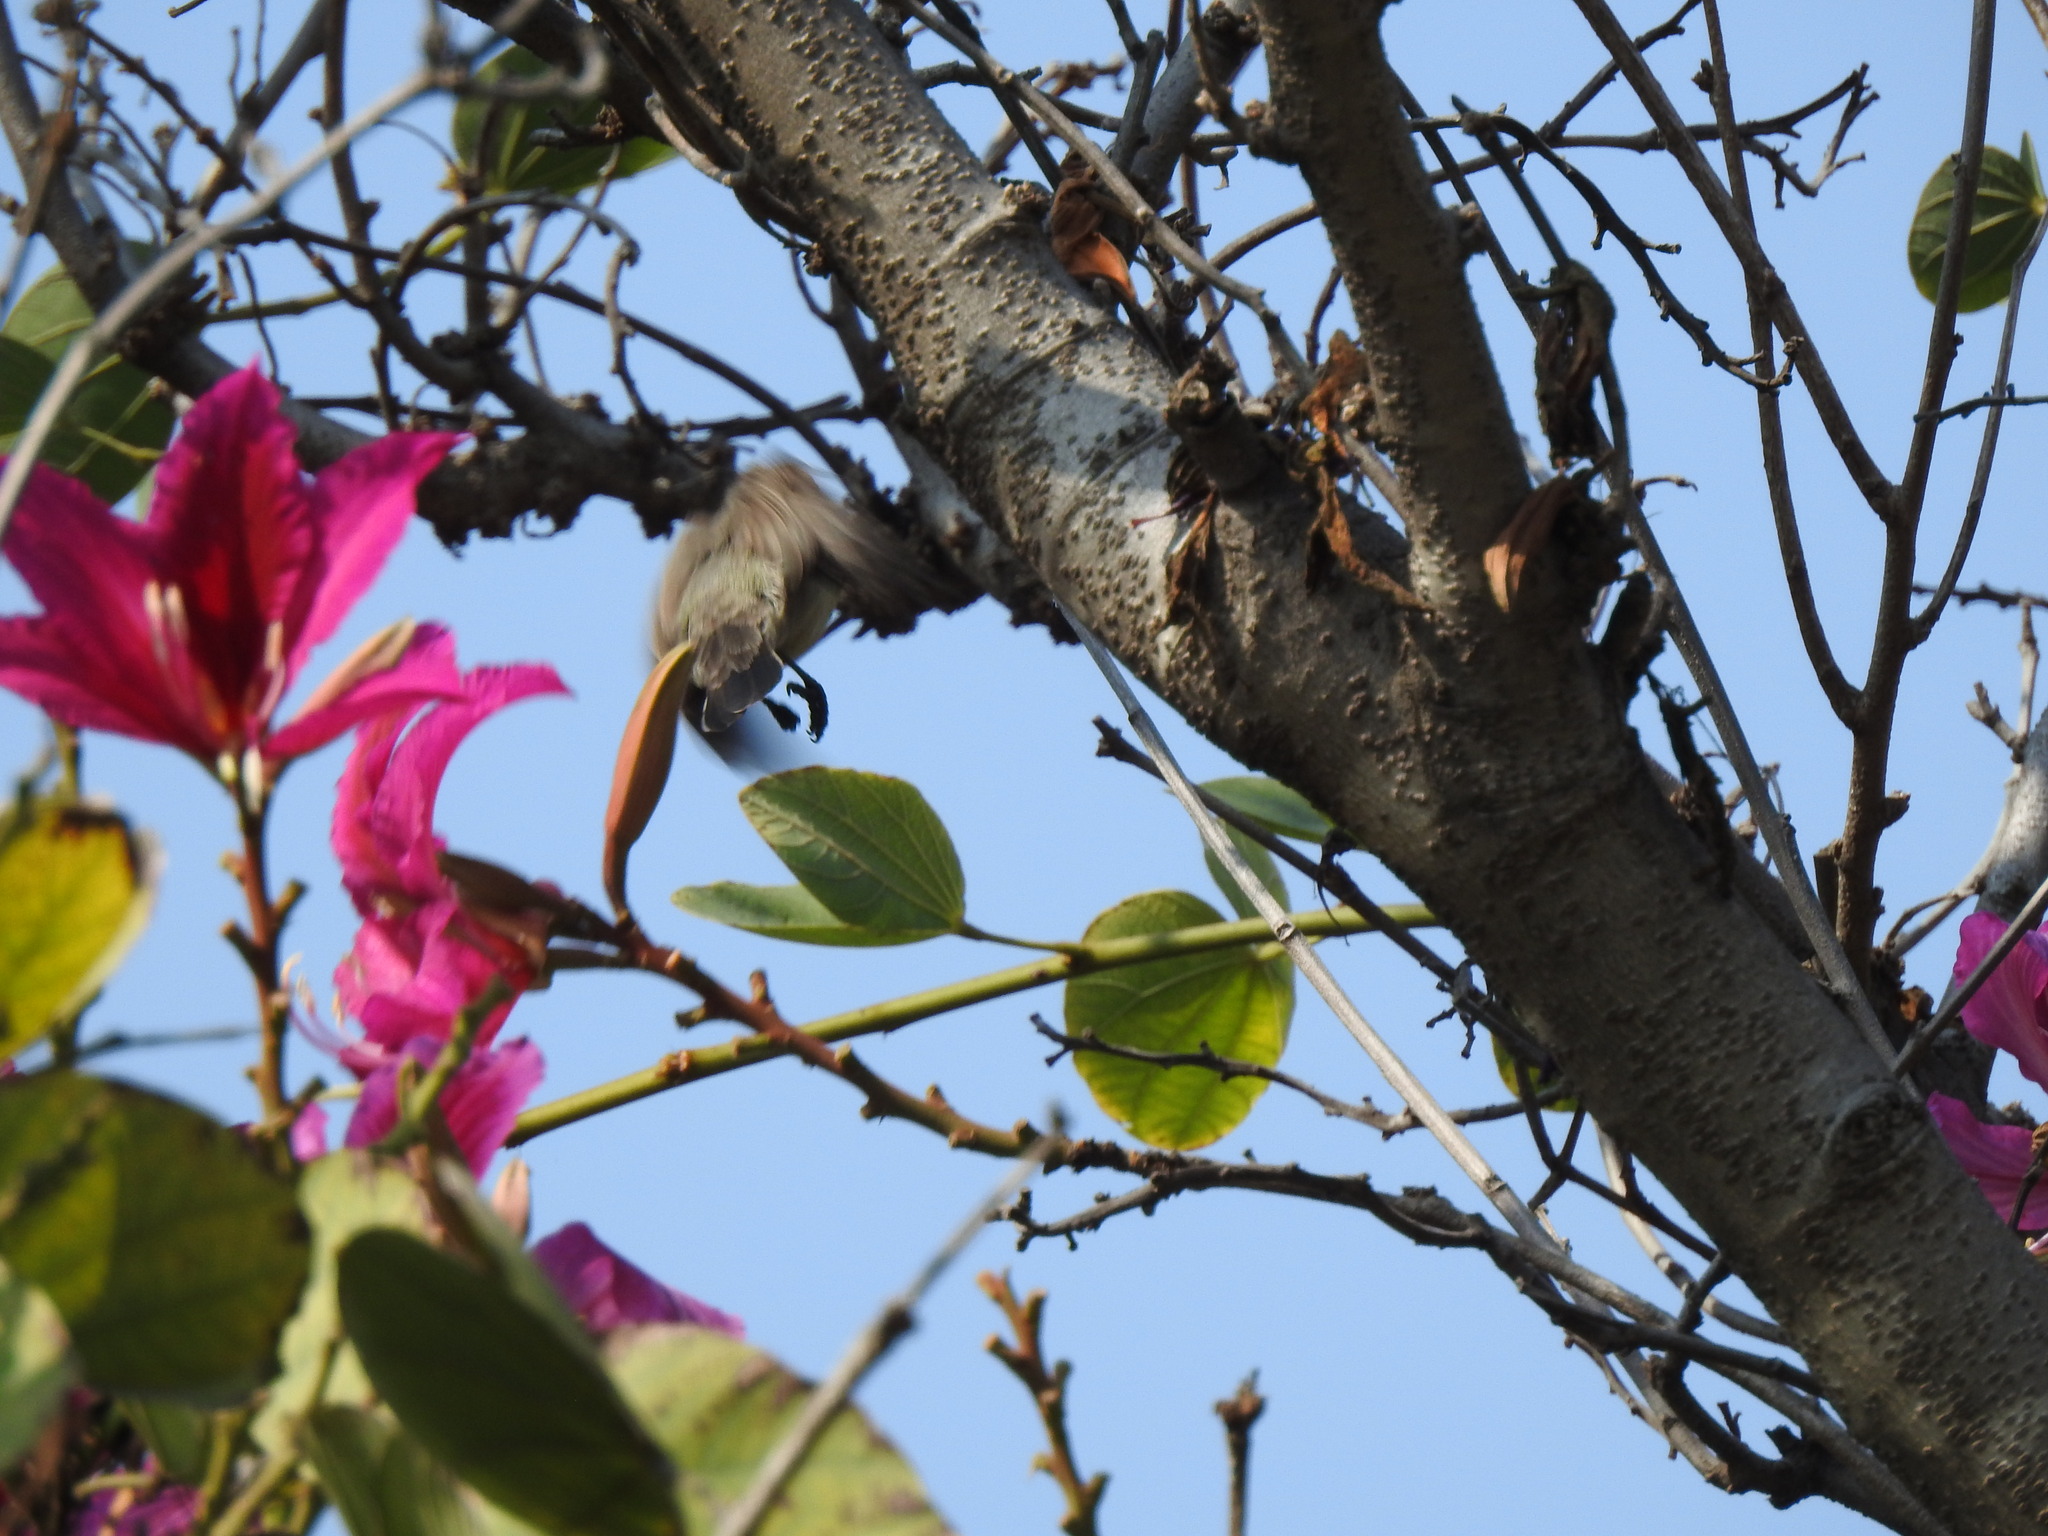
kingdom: Animalia
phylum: Chordata
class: Aves
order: Passeriformes
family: Nectariniidae
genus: Cinnyris
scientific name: Cinnyris asiaticus
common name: Purple sunbird
